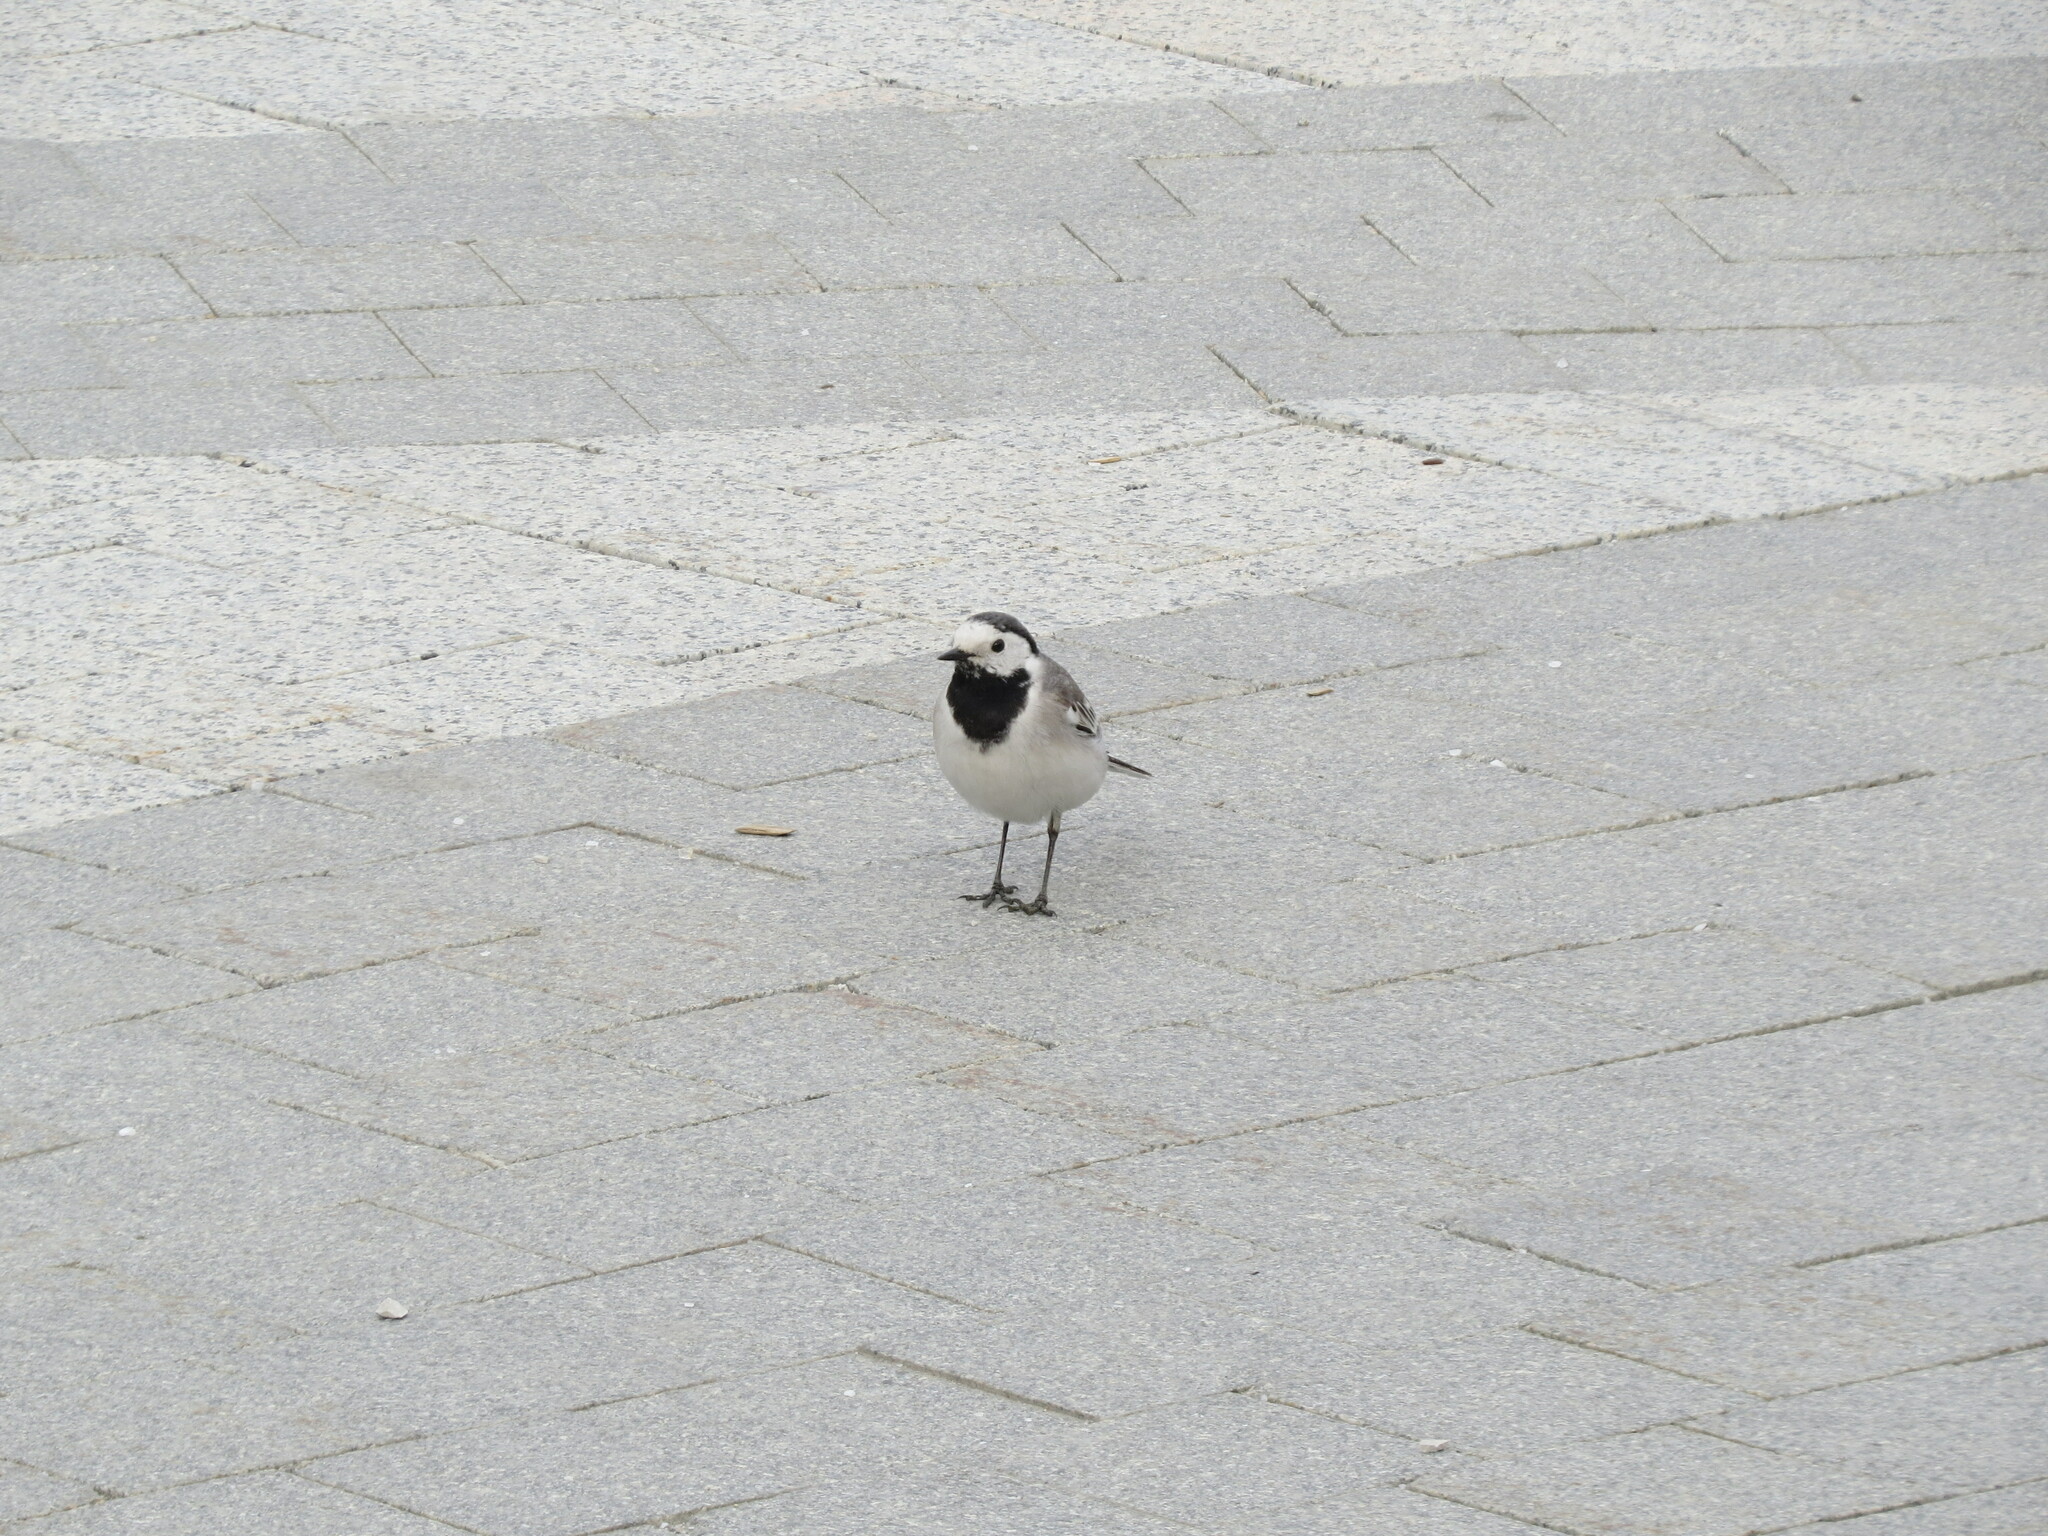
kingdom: Animalia
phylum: Chordata
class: Aves
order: Passeriformes
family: Motacillidae
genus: Motacilla
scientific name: Motacilla alba
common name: White wagtail
